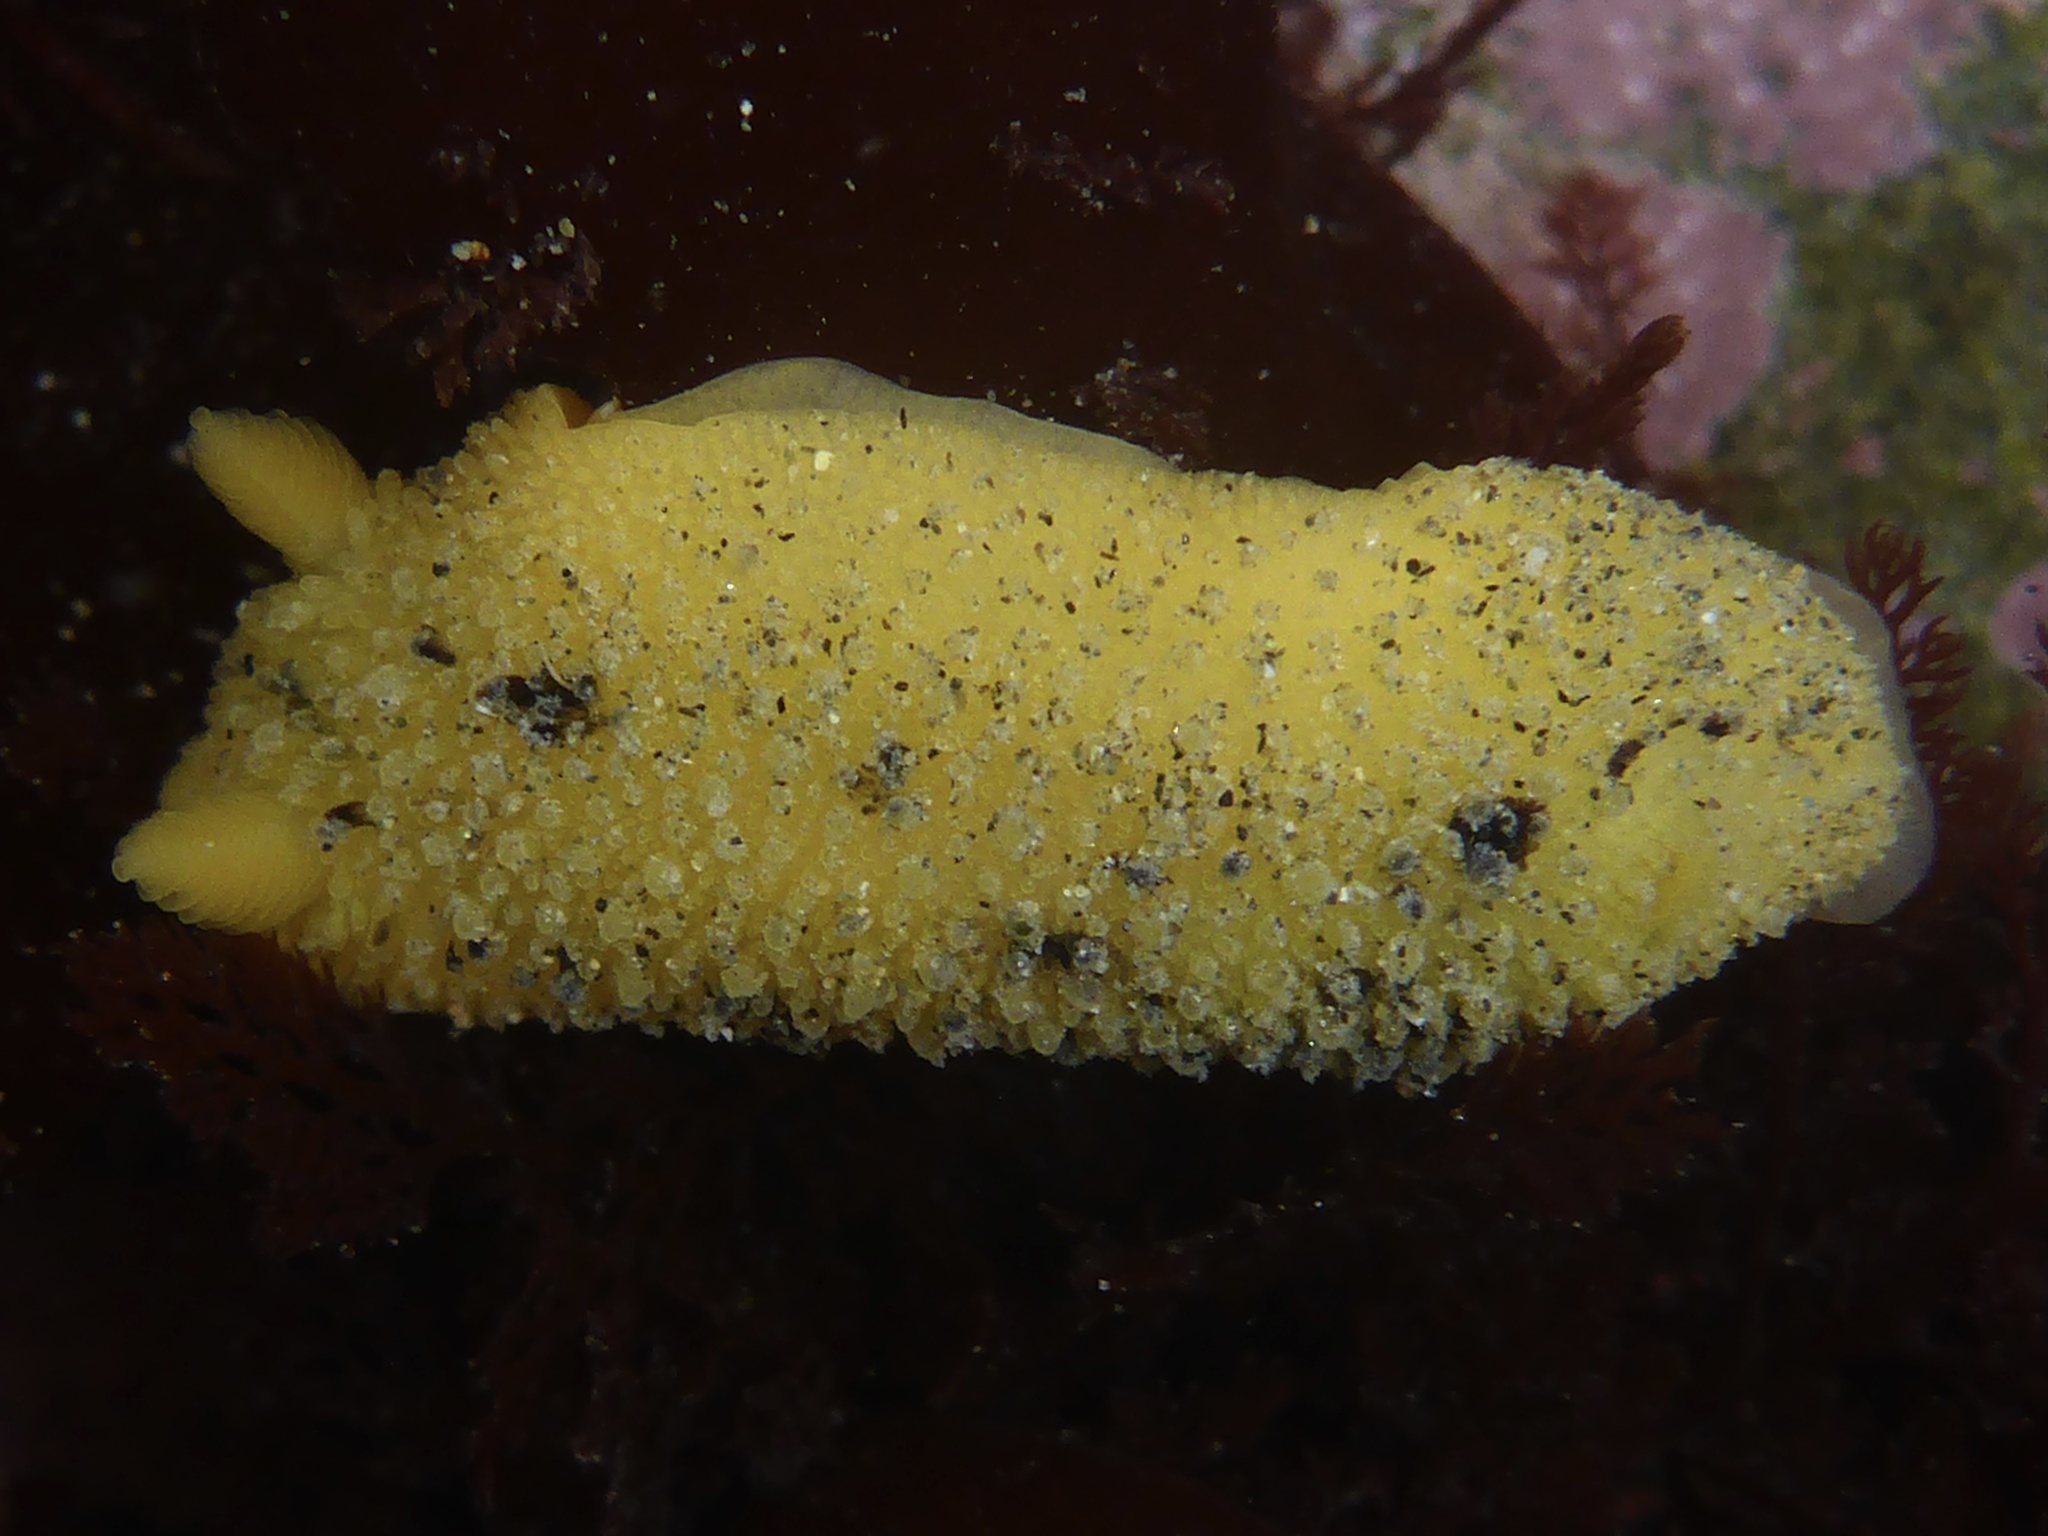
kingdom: Animalia
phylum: Mollusca
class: Gastropoda
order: Nudibranchia
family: Dorididae
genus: Doris
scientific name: Doris montereyensis
